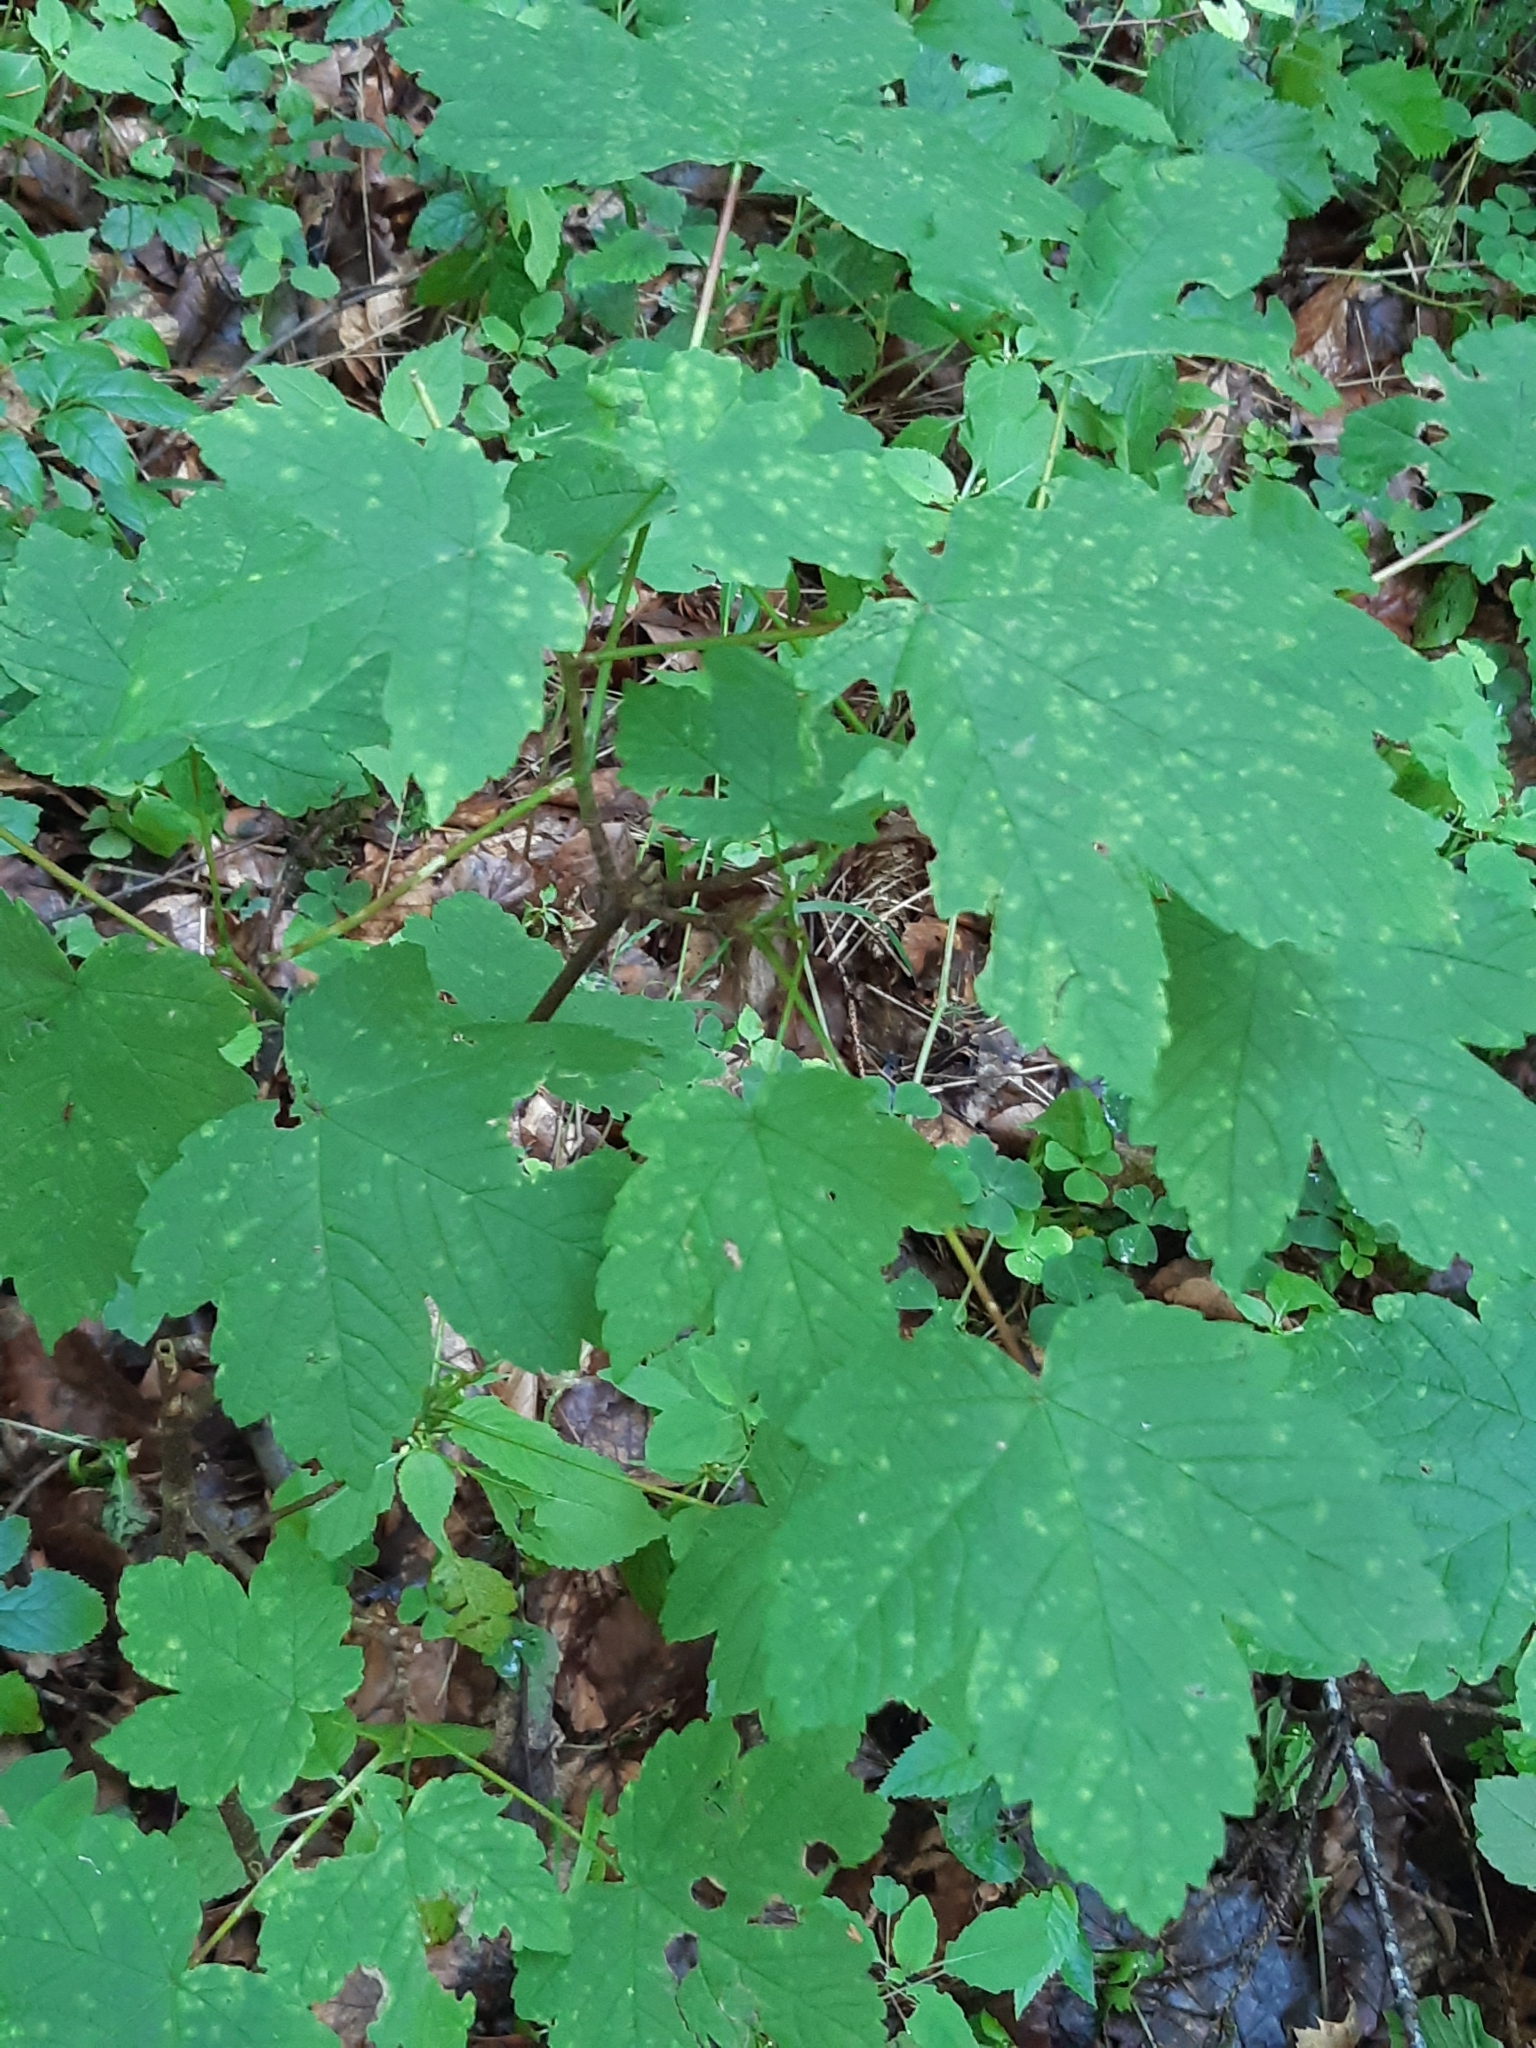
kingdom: Plantae
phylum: Tracheophyta
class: Magnoliopsida
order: Sapindales
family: Sapindaceae
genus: Acer
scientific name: Acer pseudoplatanus
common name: Sycamore
